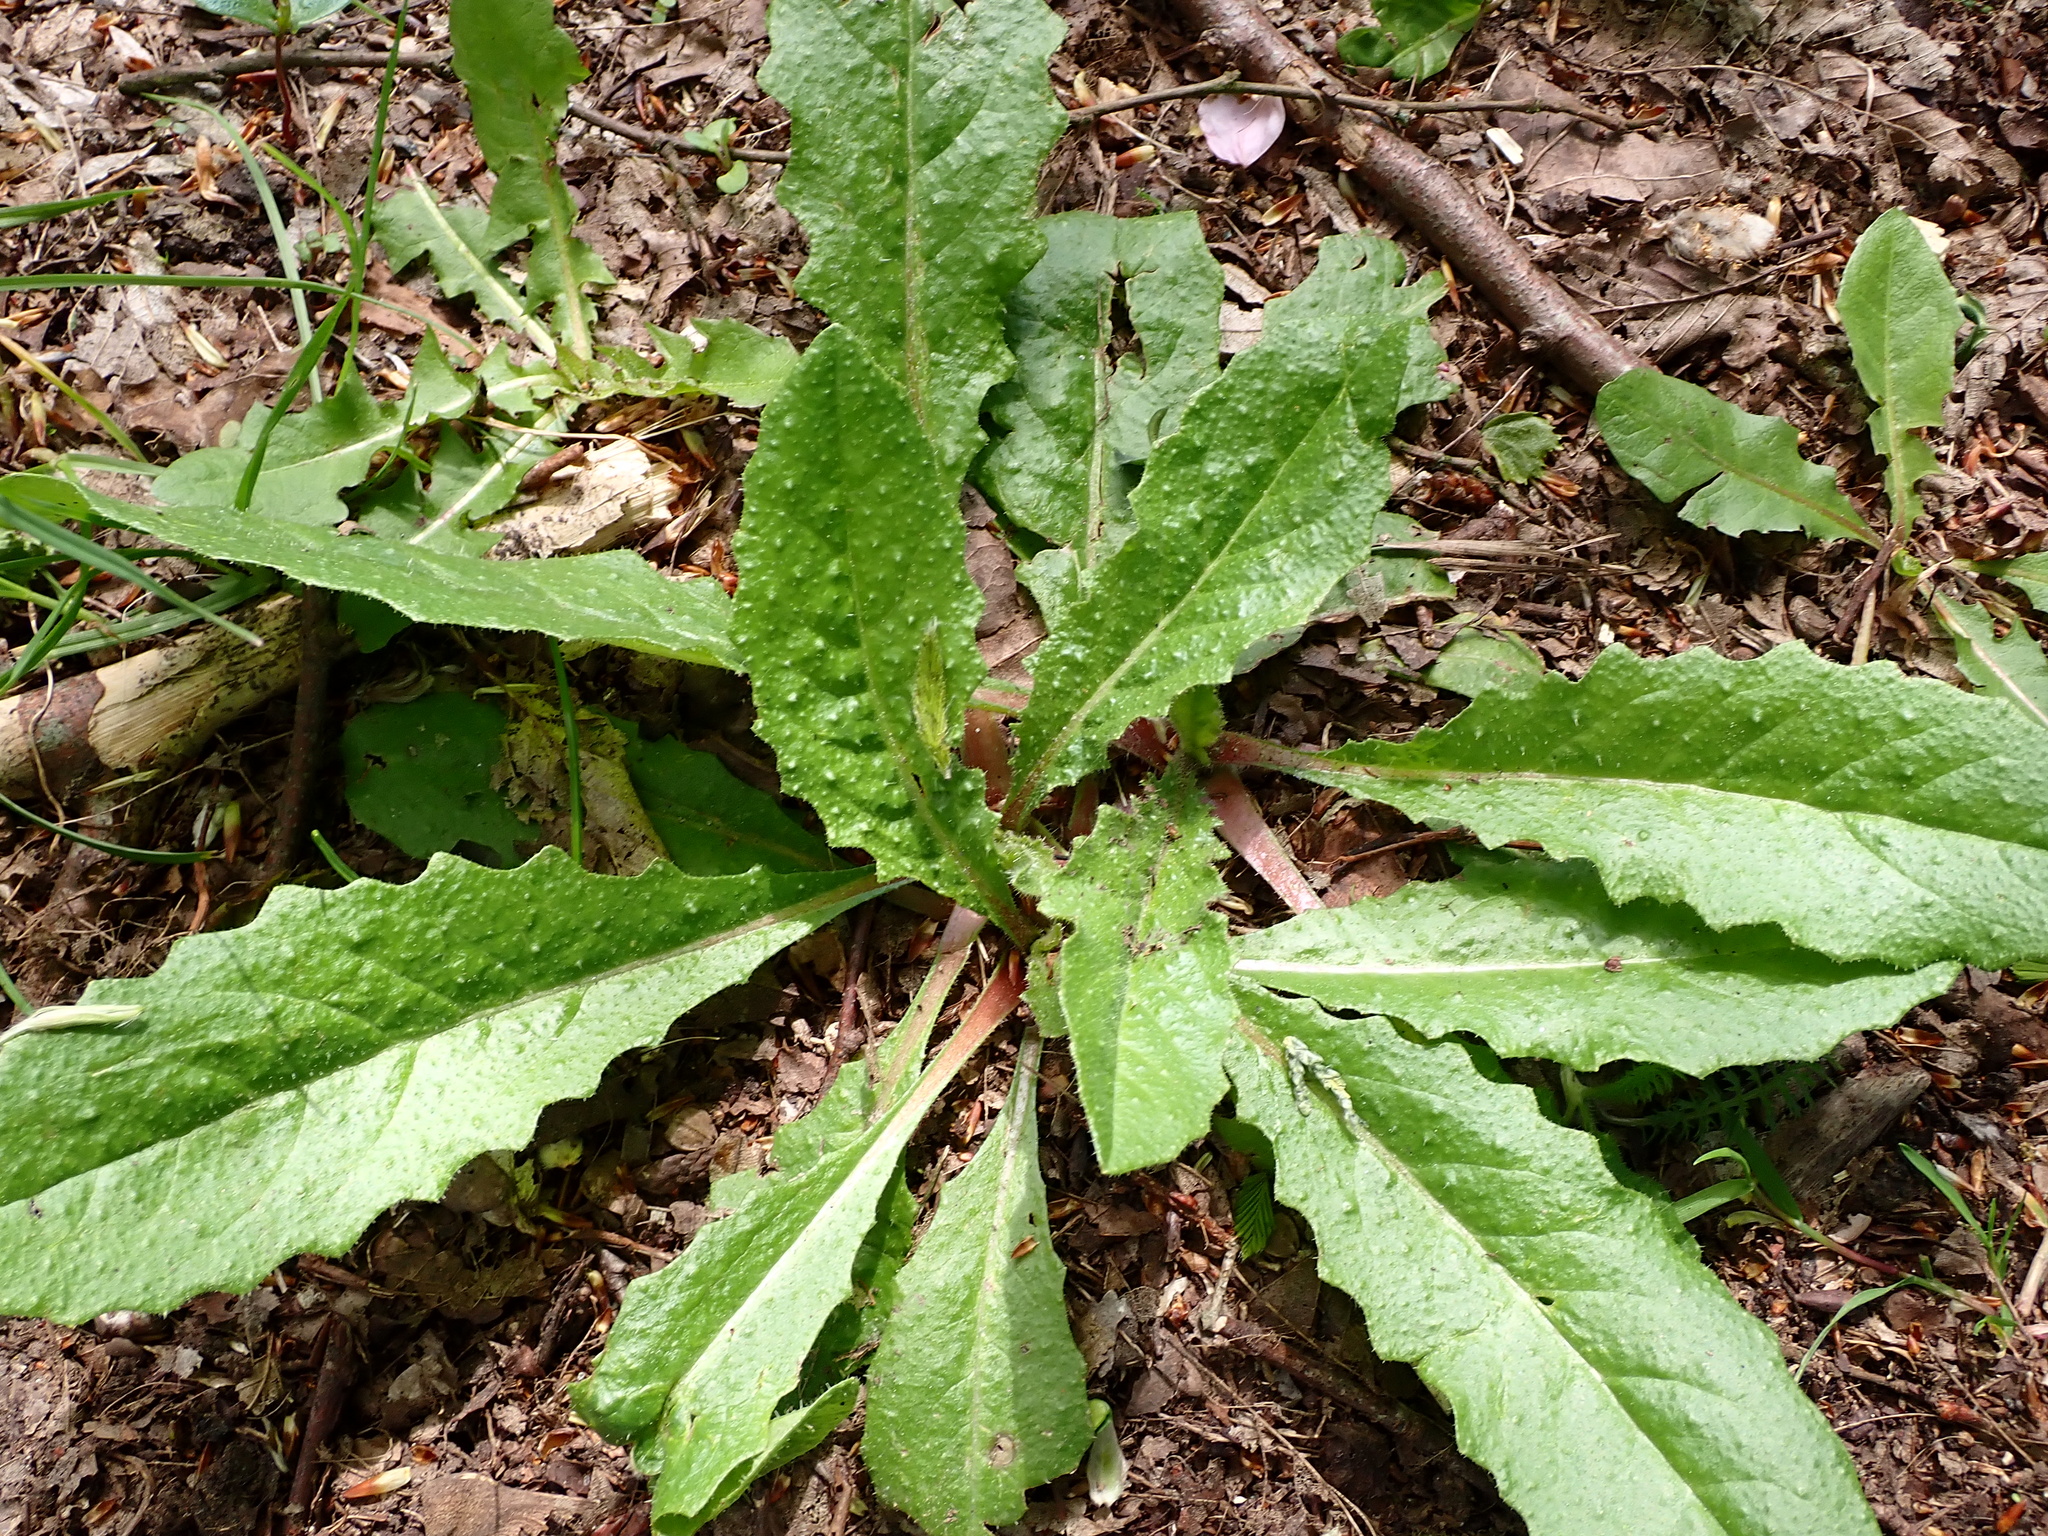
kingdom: Plantae
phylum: Tracheophyta
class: Magnoliopsida
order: Asterales
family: Asteraceae
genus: Helminthotheca
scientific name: Helminthotheca echioides
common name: Ox-tongue
